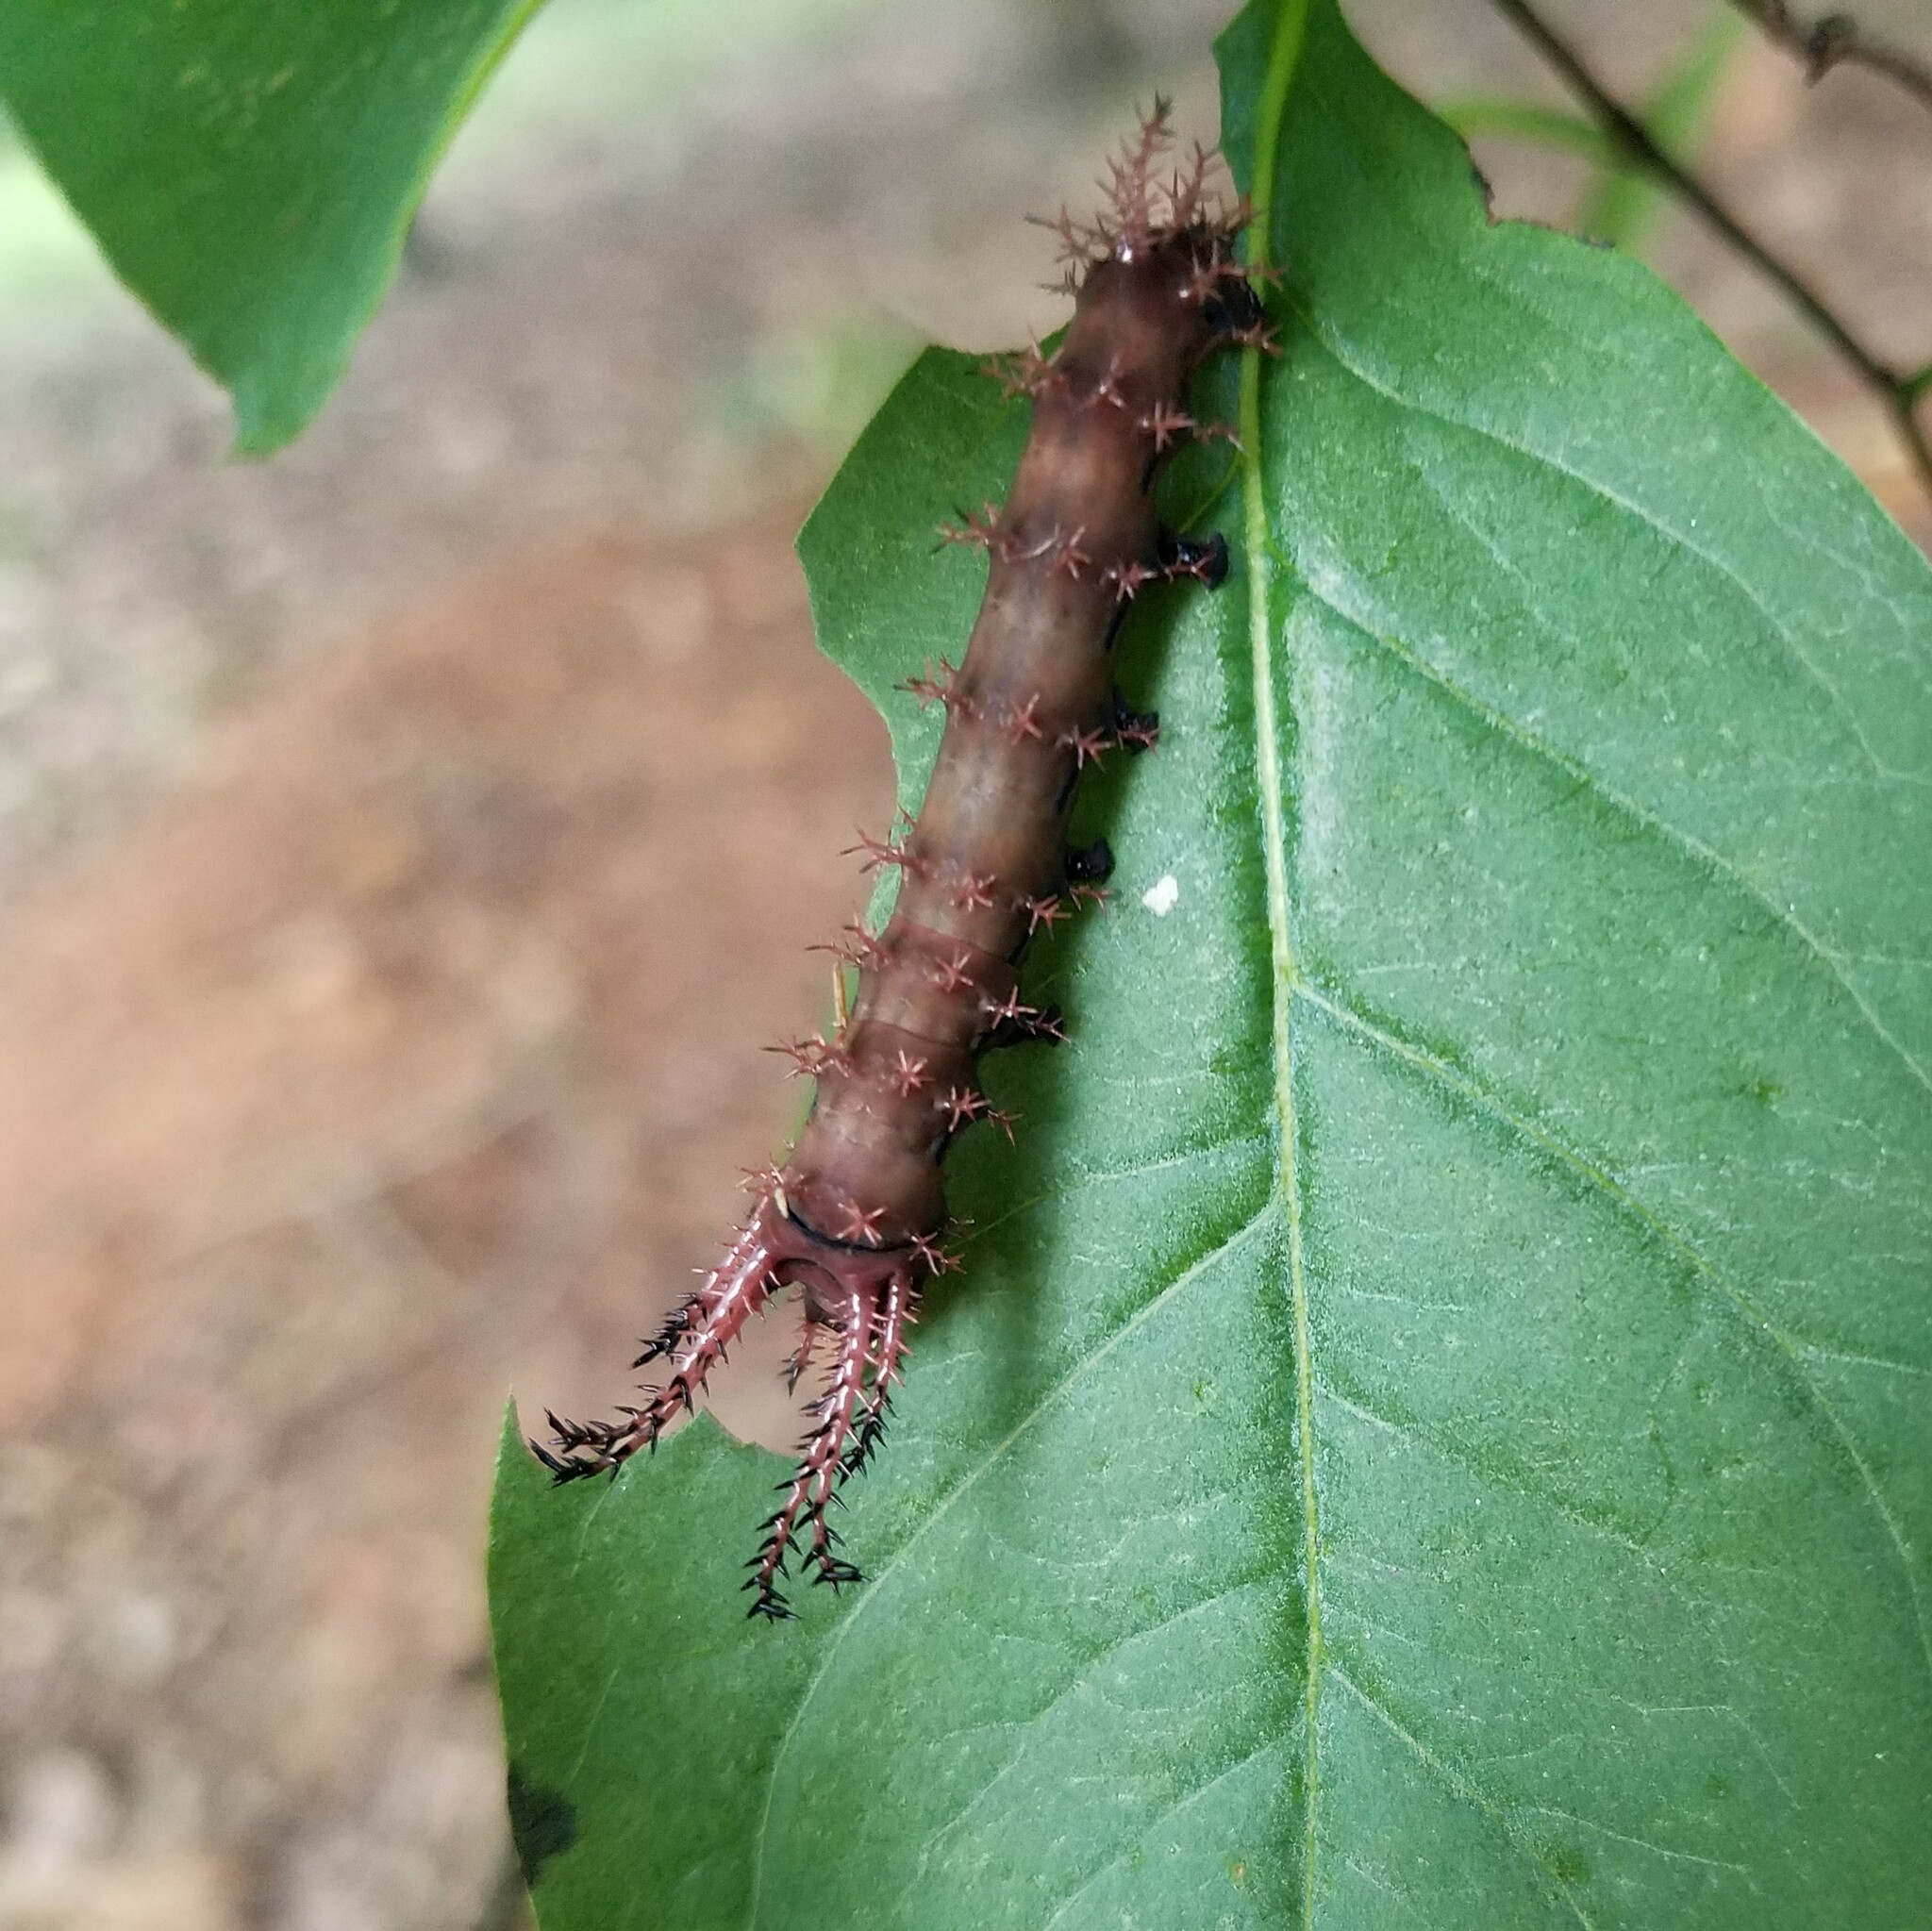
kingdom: Animalia
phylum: Arthropoda
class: Insecta
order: Lepidoptera
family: Saturniidae
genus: Citheronia
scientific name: Citheronia regalis
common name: Hickory horned devil
